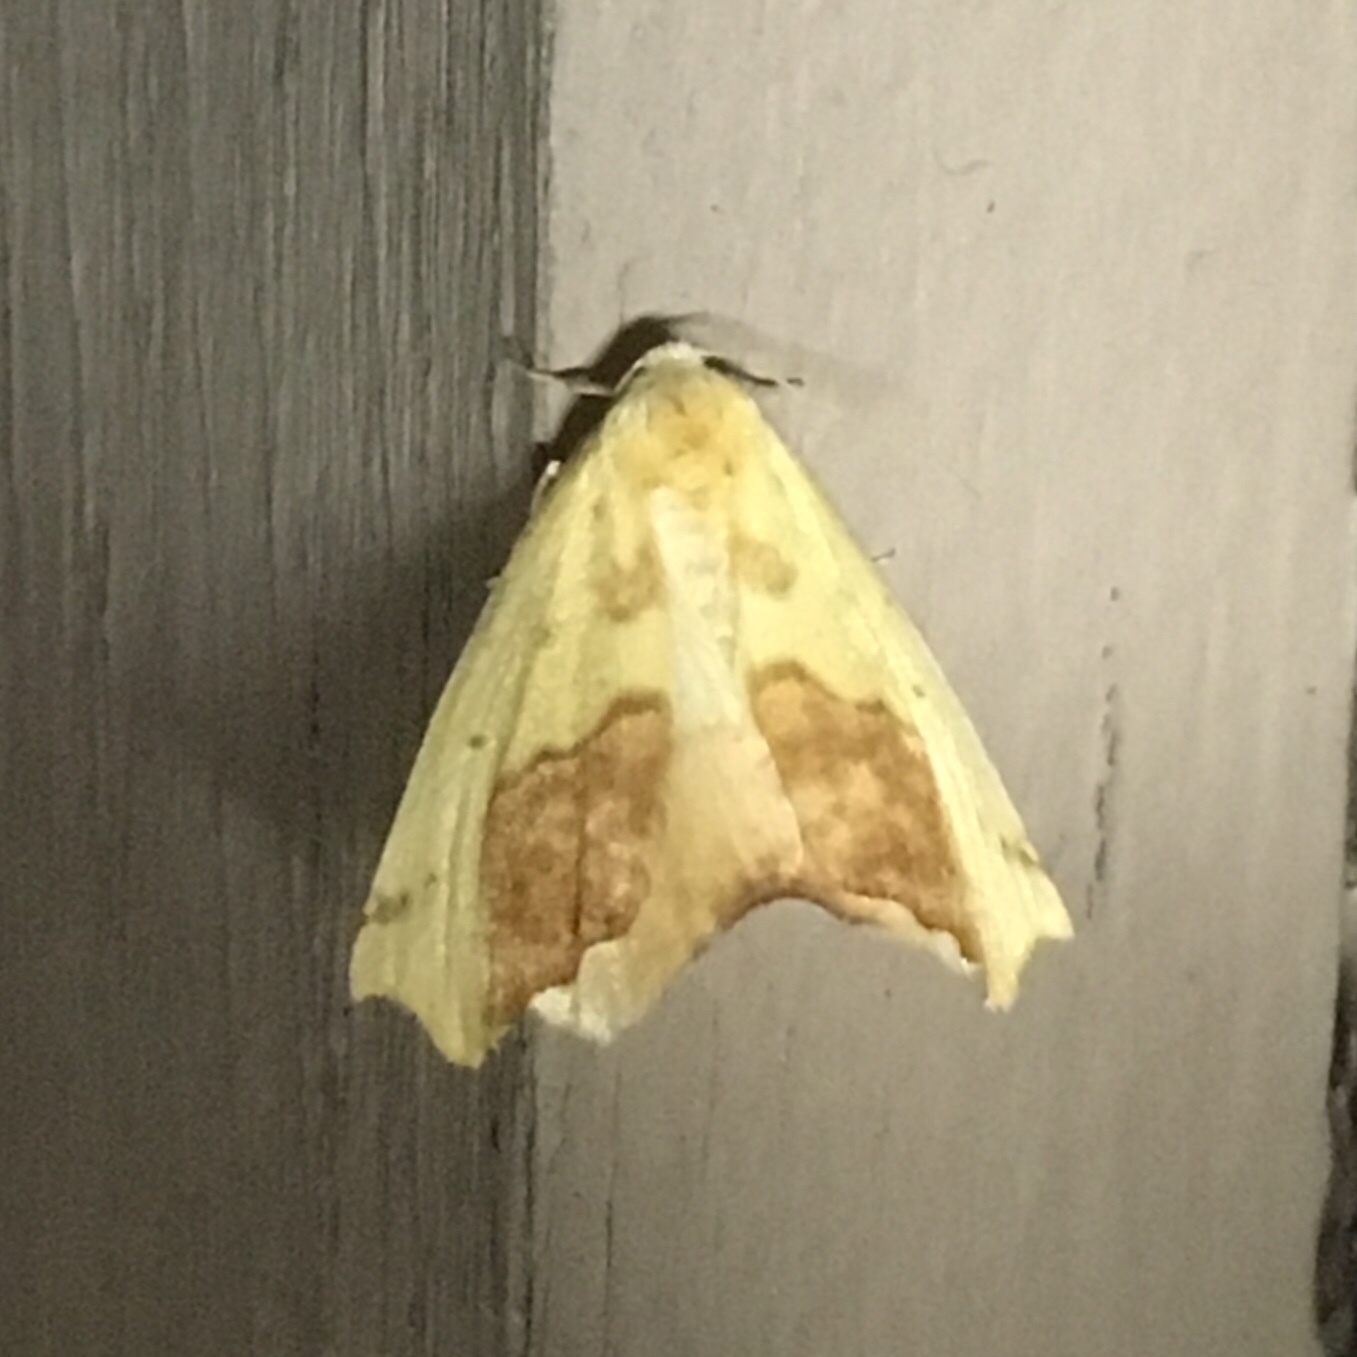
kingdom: Animalia
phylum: Arthropoda
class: Insecta
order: Lepidoptera
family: Geometridae
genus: Sicya
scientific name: Sicya macularia
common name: Sharp-lined yellow
